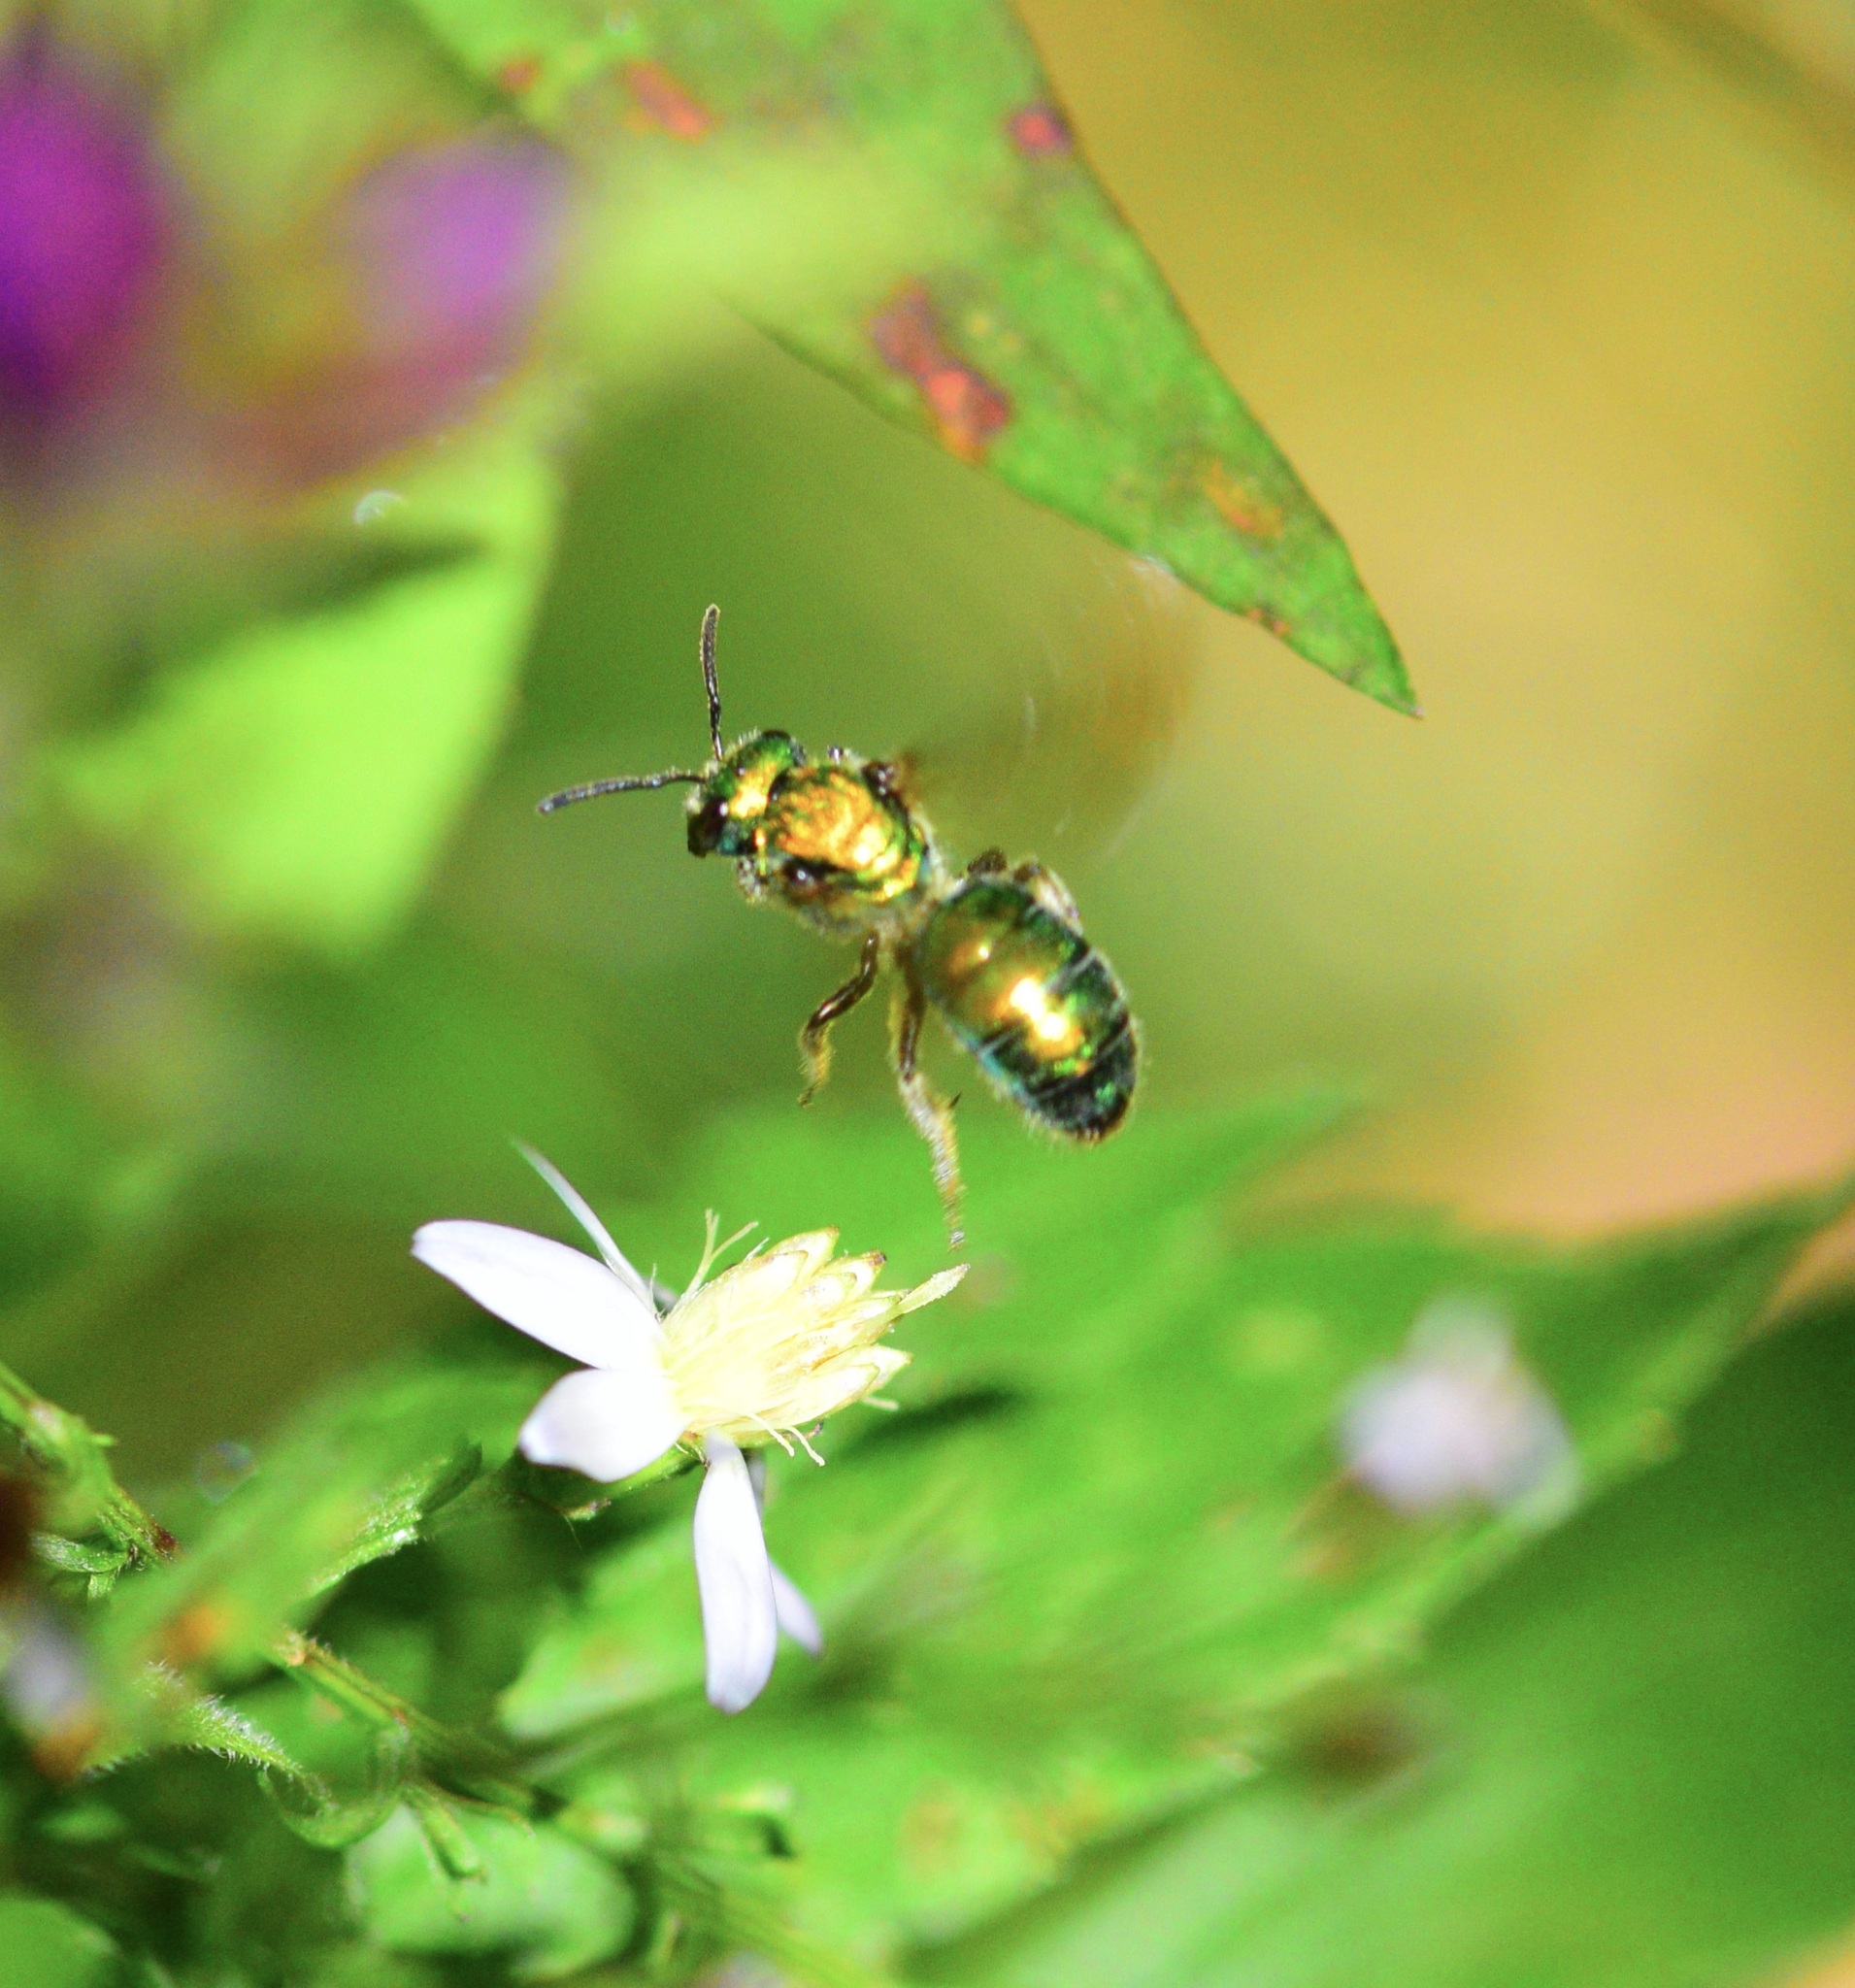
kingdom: Animalia
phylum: Arthropoda
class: Insecta
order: Hymenoptera
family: Halictidae
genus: Augochlora
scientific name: Augochlora pura
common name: Pure green sweat bee
